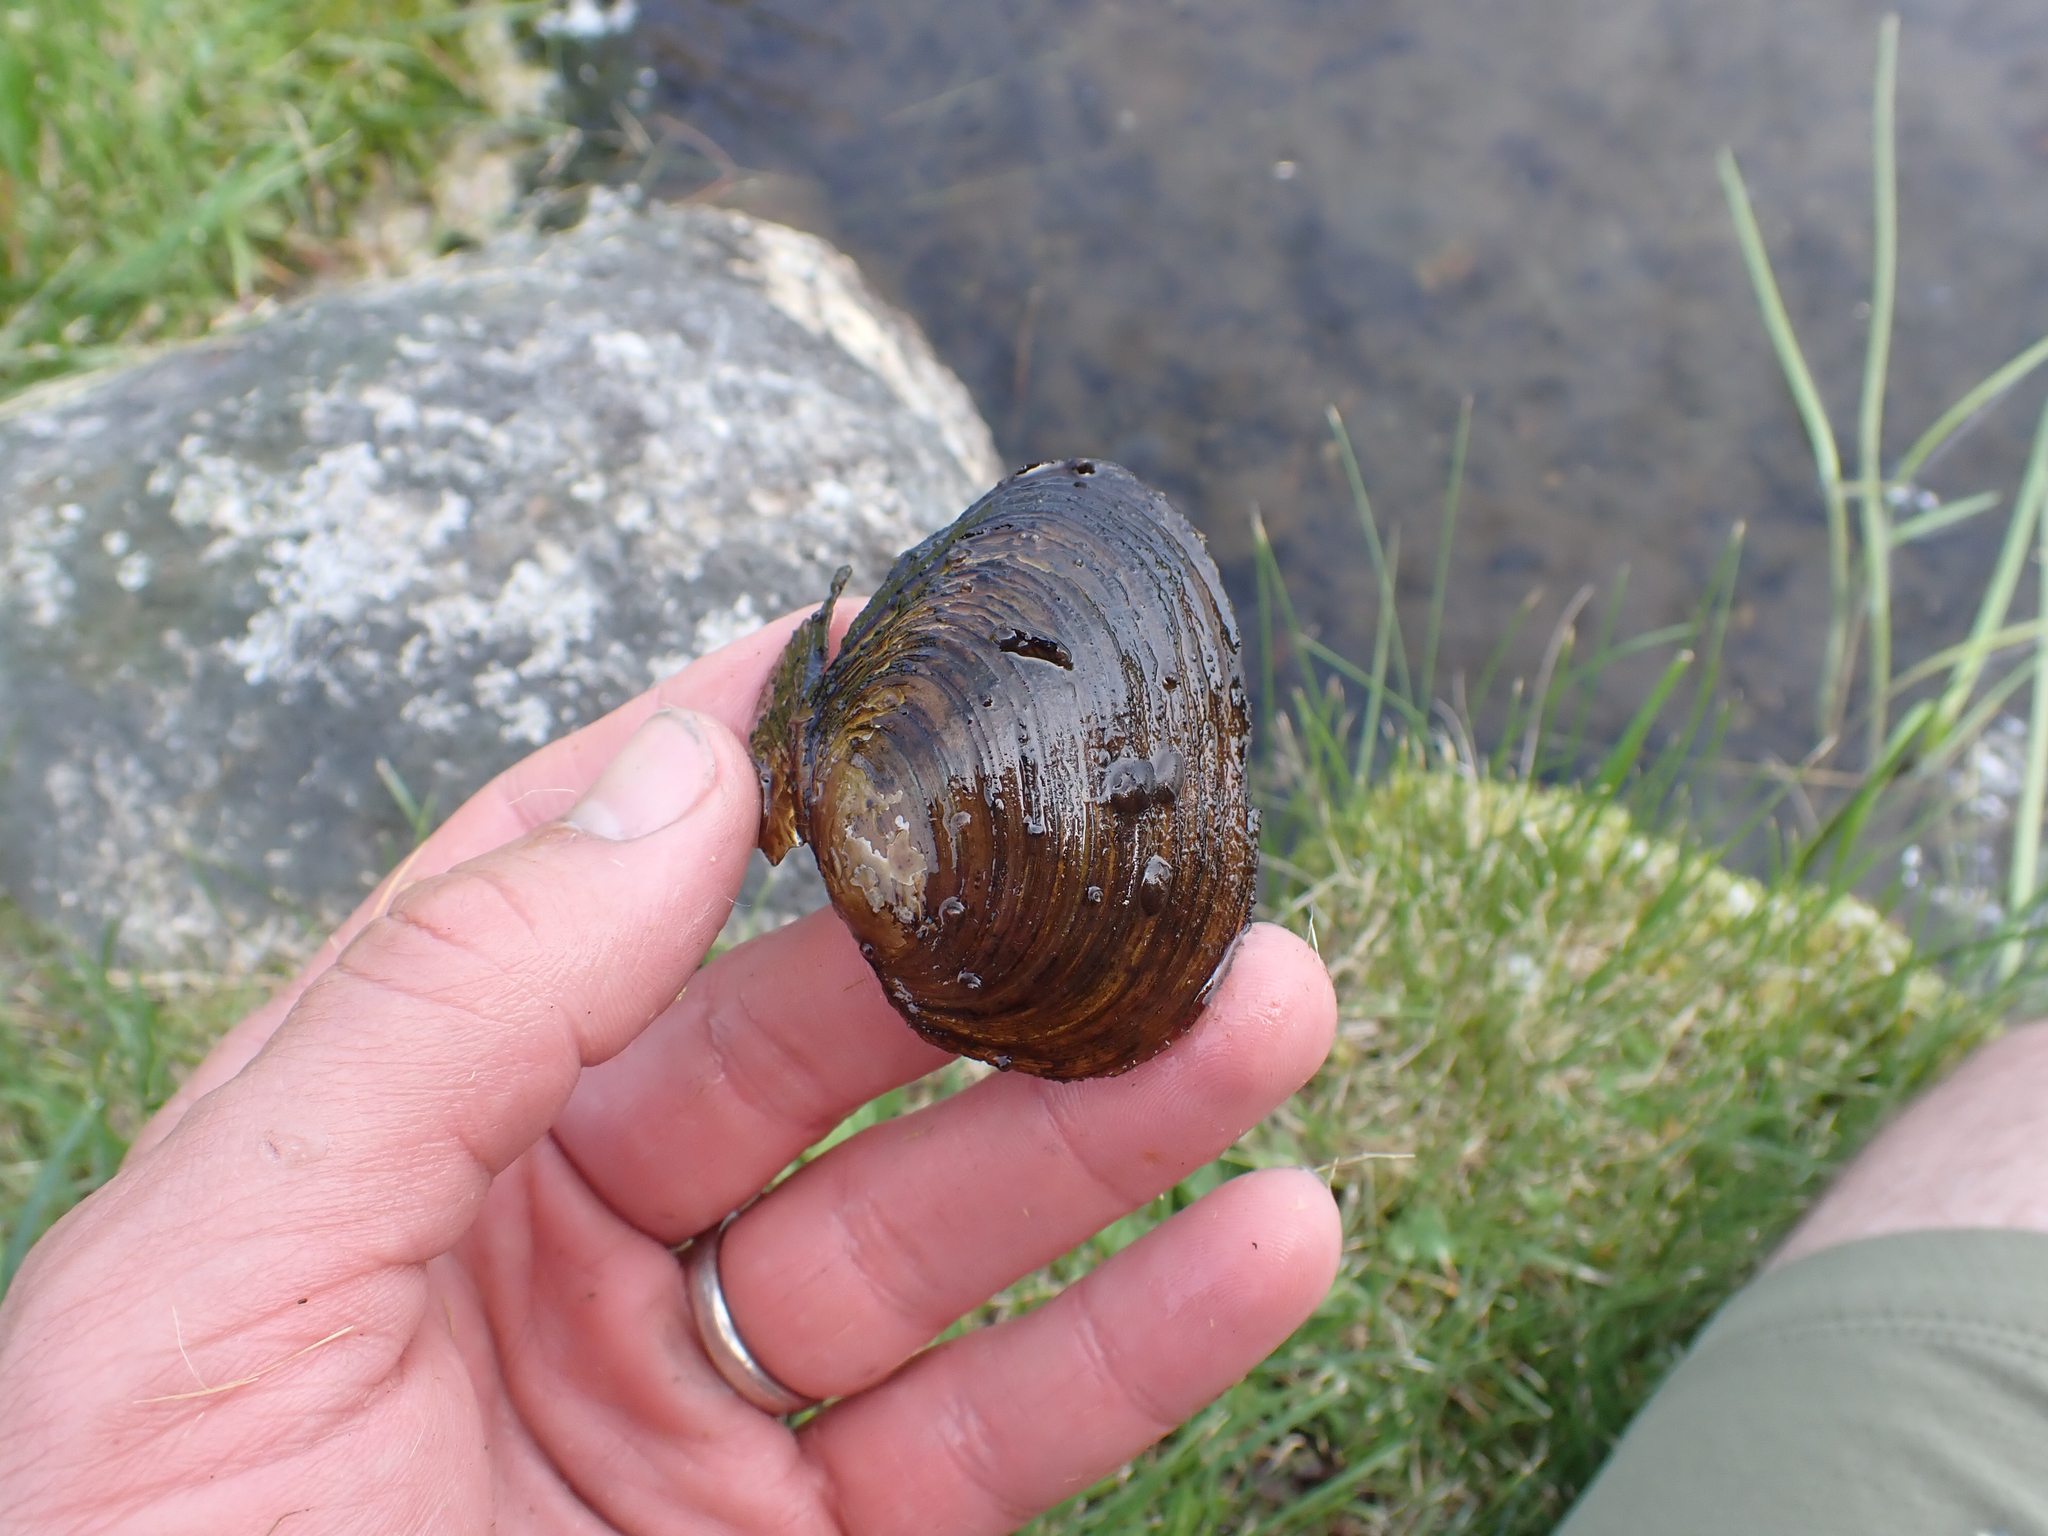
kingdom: Animalia
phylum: Mollusca
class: Bivalvia
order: Unionida
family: Unionidae
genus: Beringiana
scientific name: Beringiana beringiana
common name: Yukon floater
